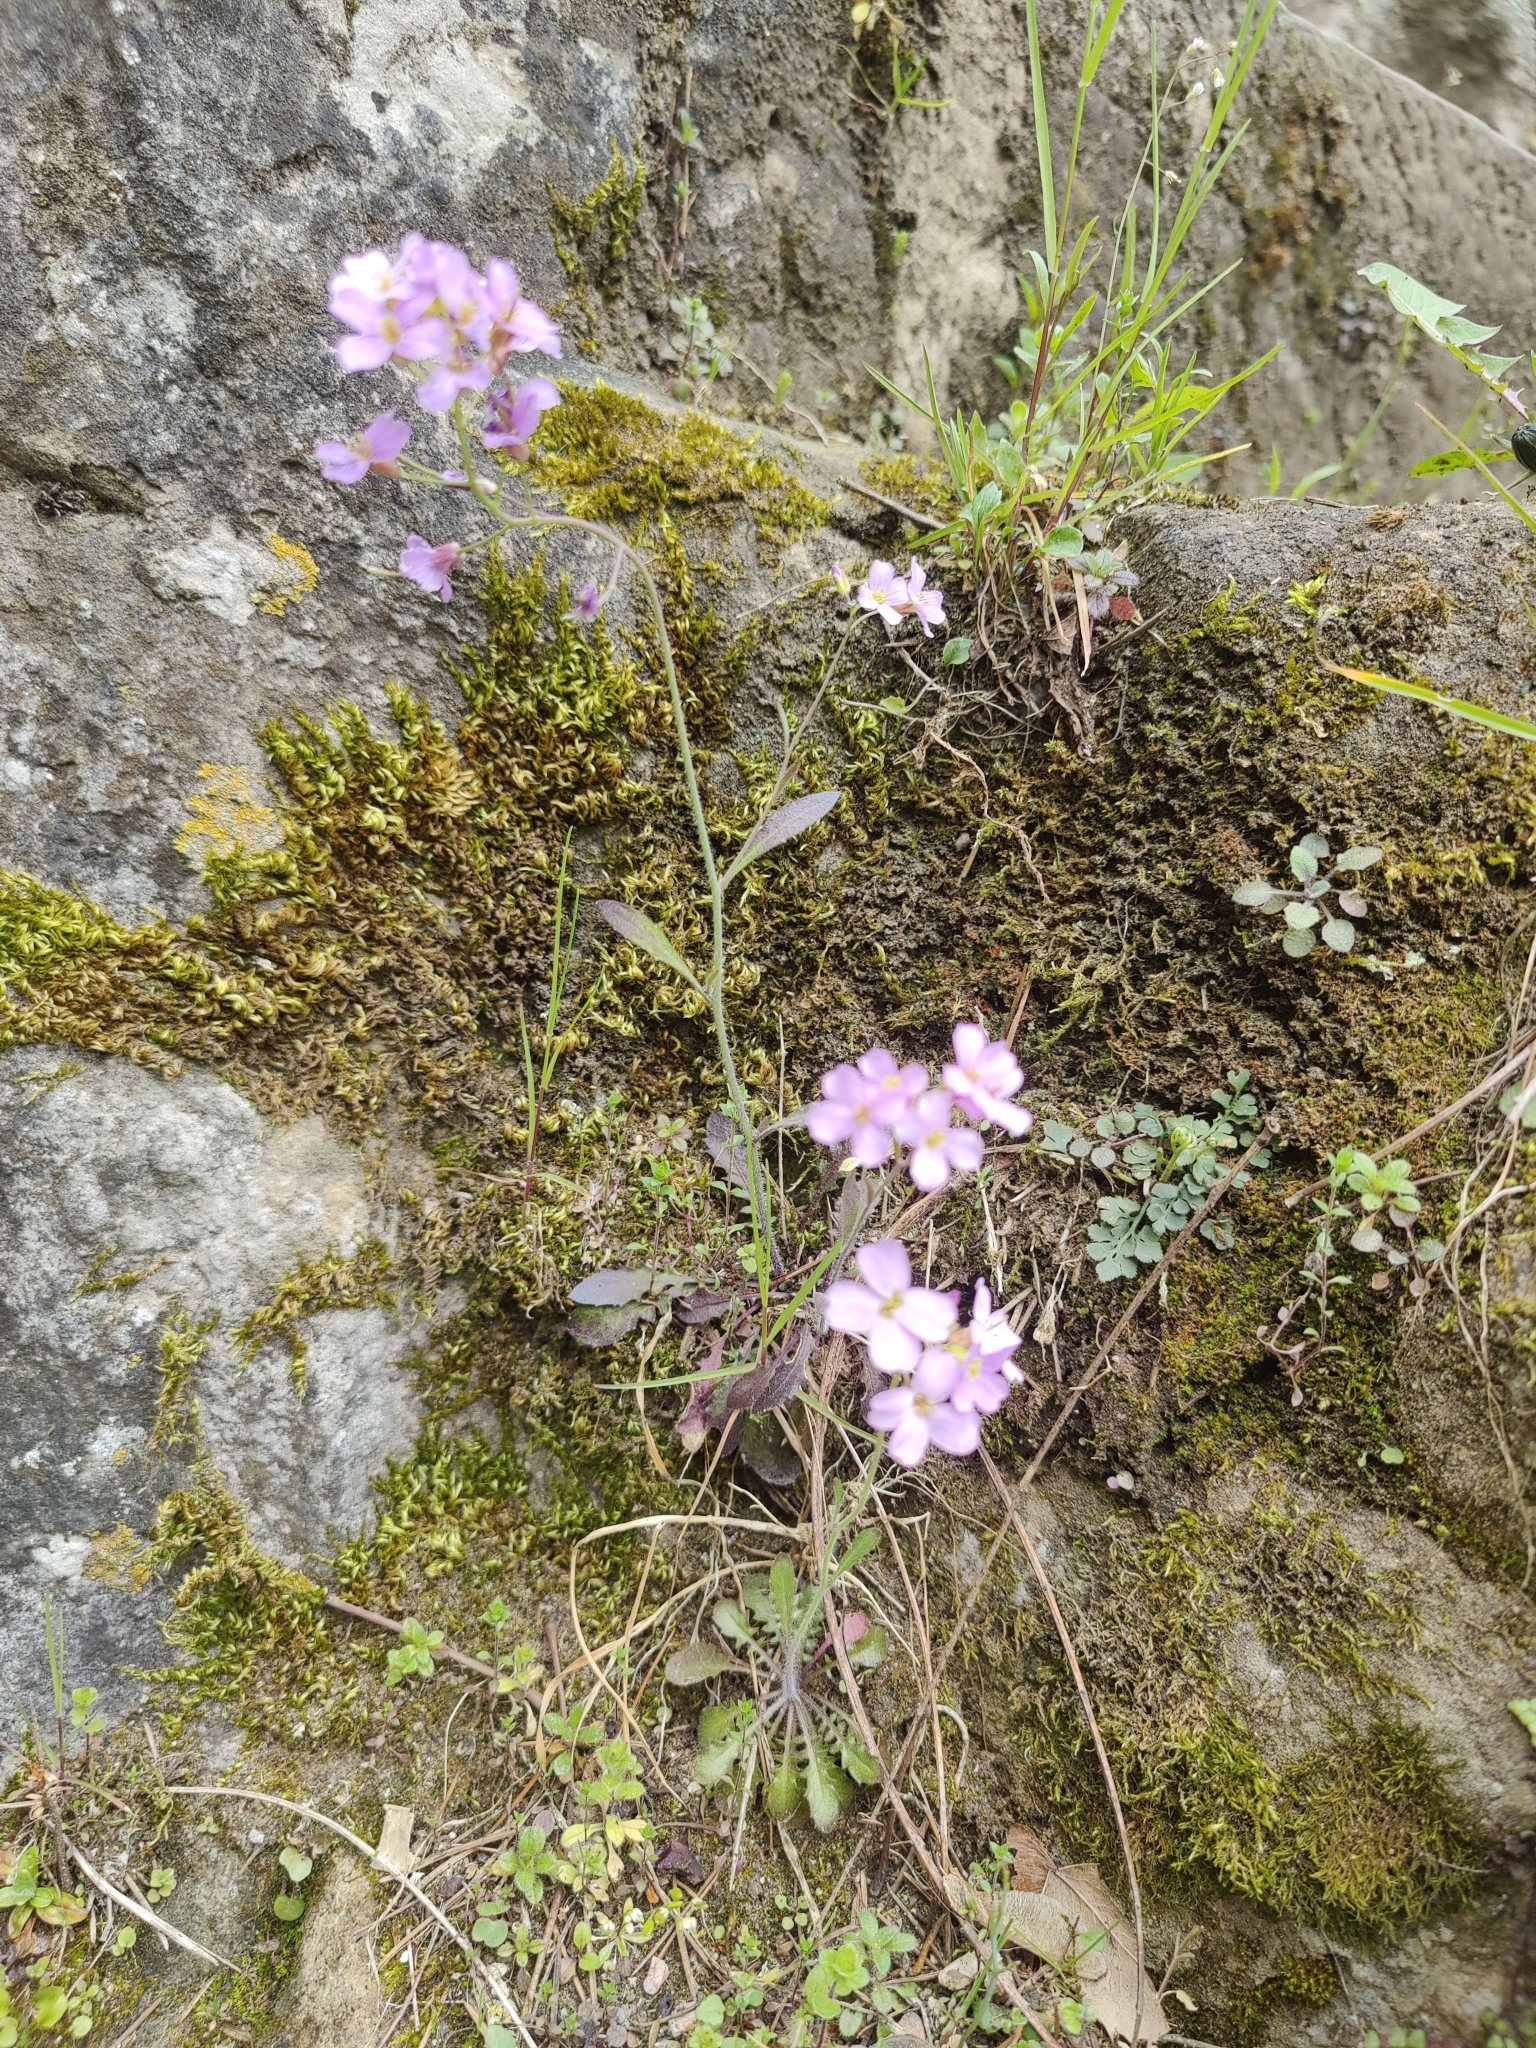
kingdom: Plantae
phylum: Tracheophyta
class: Magnoliopsida
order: Brassicales
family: Brassicaceae
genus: Arabidopsis
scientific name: Arabidopsis arenosa
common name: Sand rock-cress
